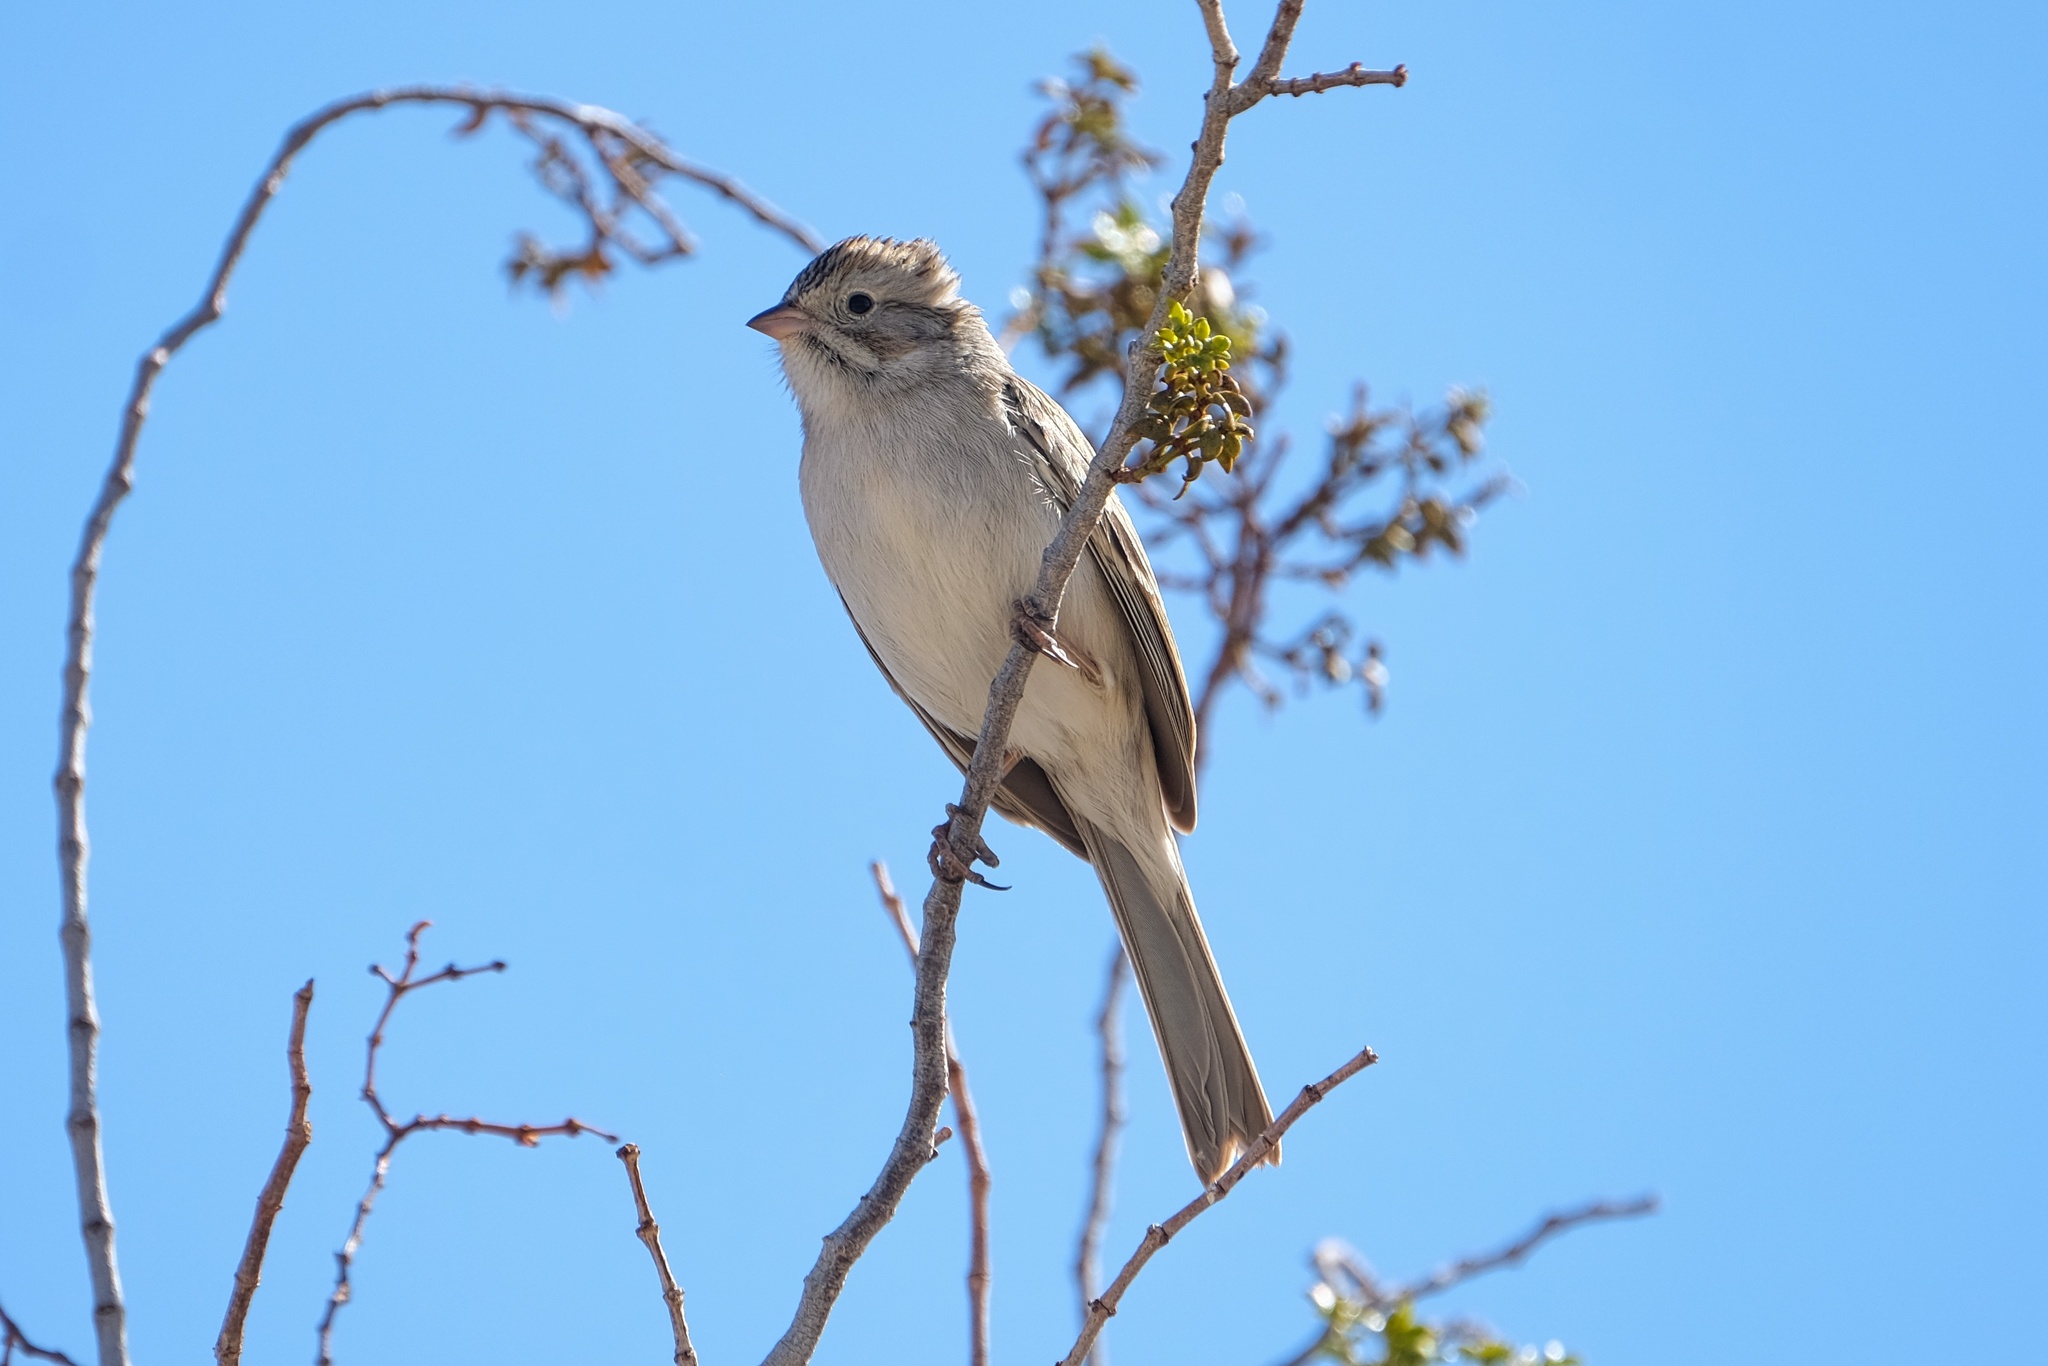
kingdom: Animalia
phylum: Chordata
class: Aves
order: Passeriformes
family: Passerellidae
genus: Spizella
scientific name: Spizella breweri
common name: Brewer's sparrow
